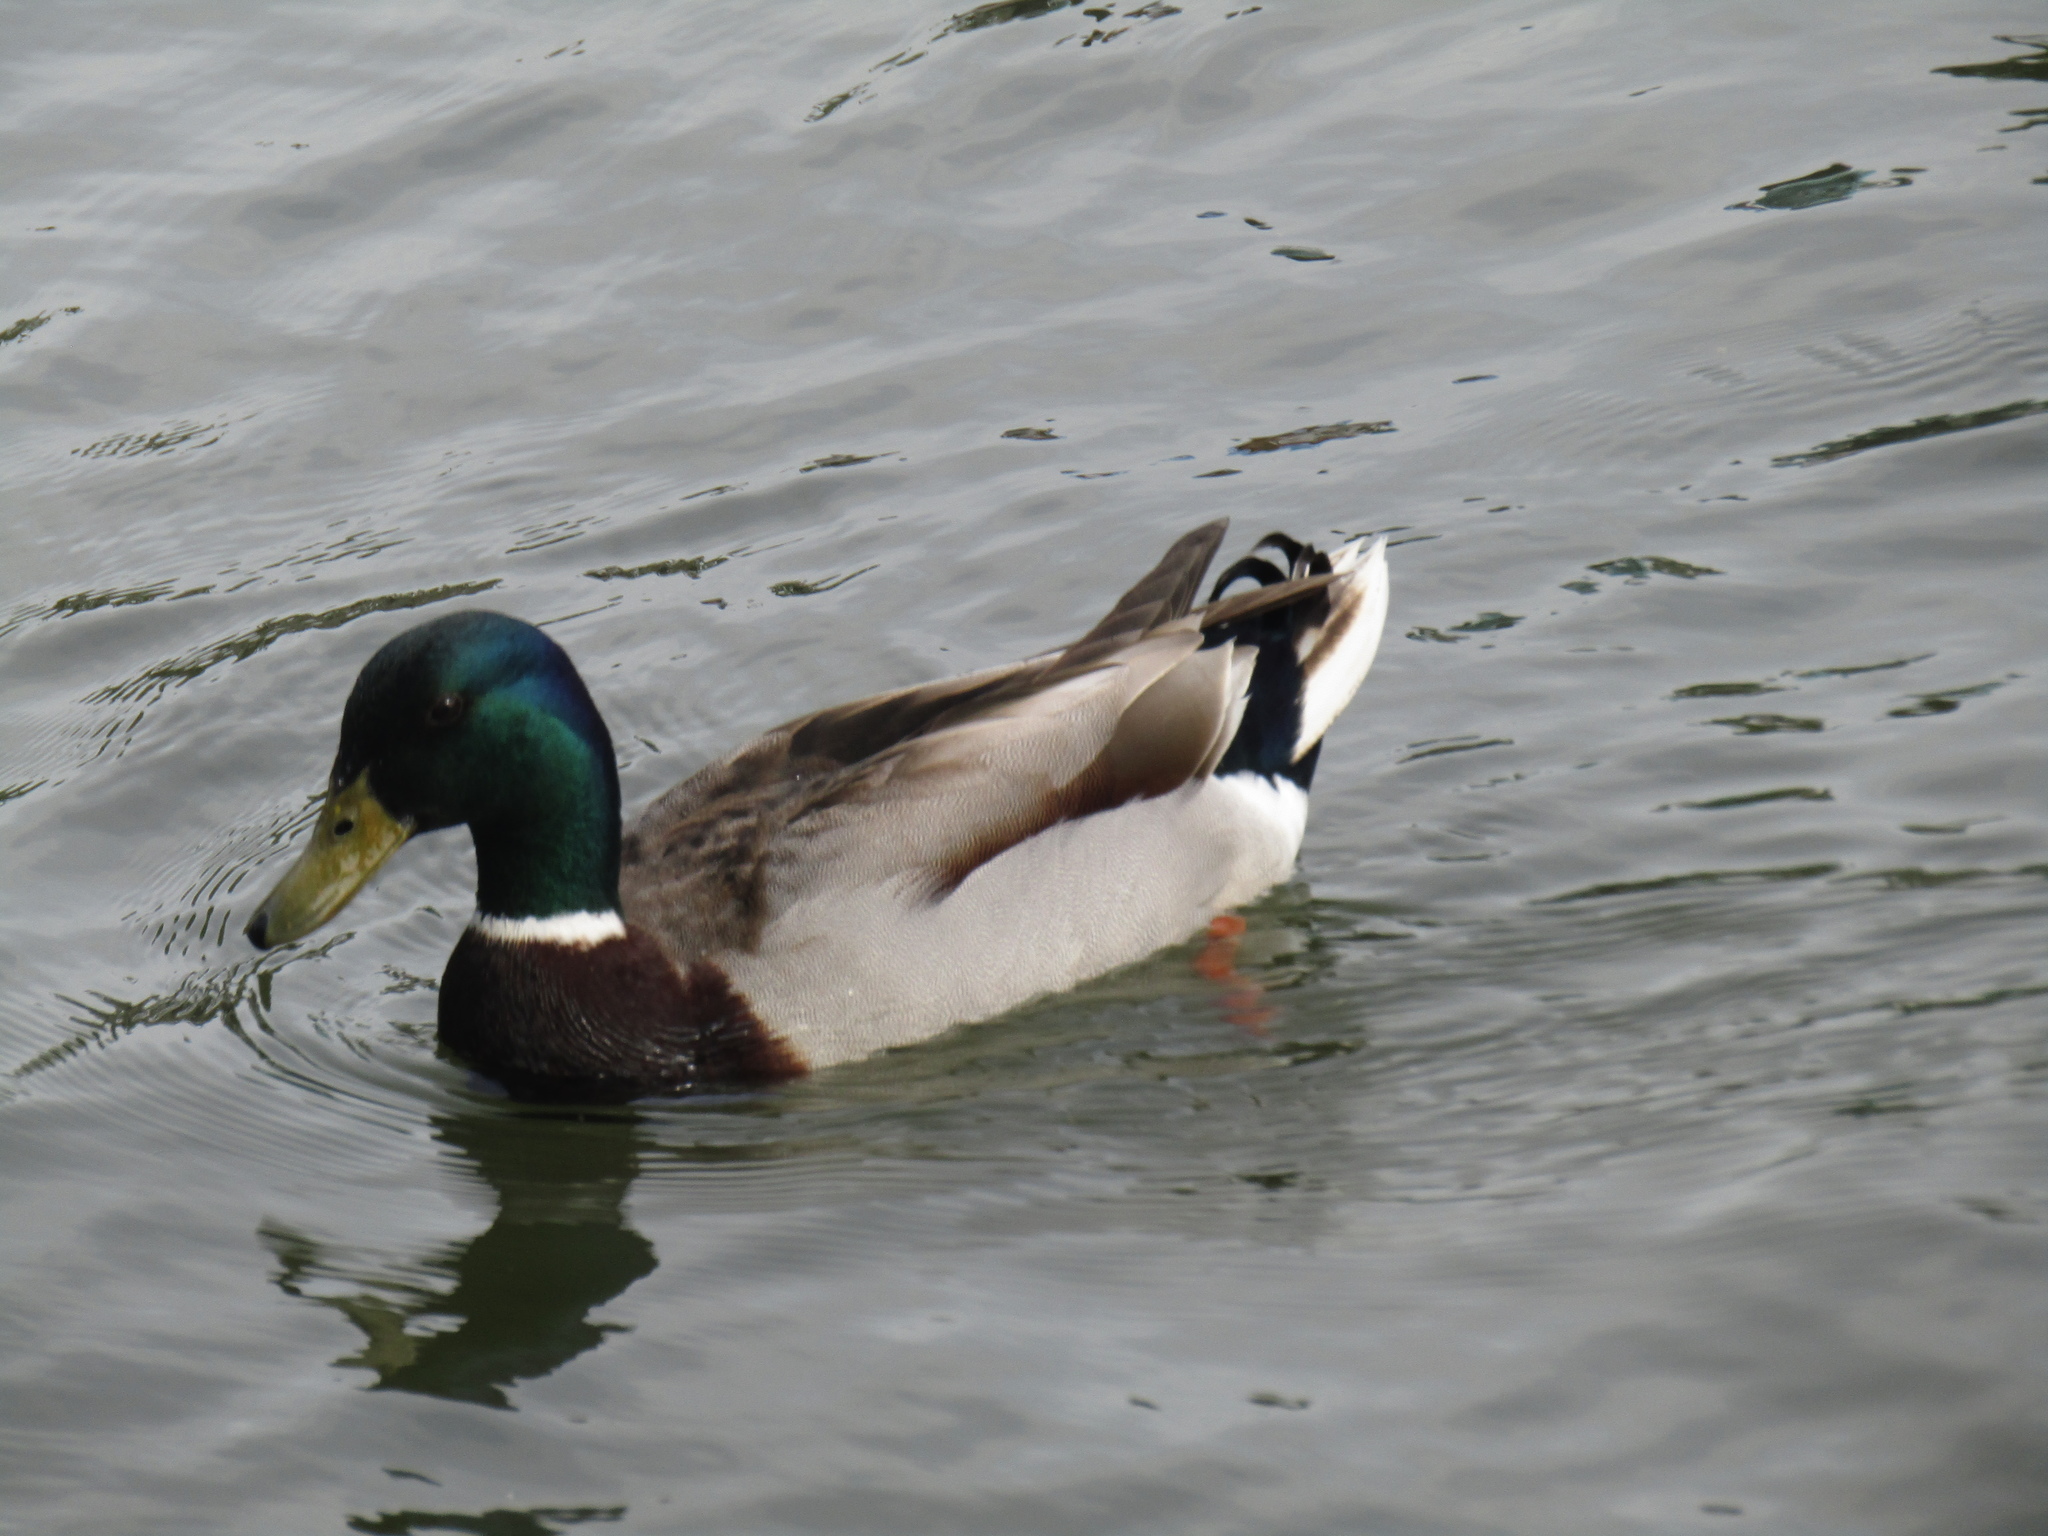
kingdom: Animalia
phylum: Chordata
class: Aves
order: Anseriformes
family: Anatidae
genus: Anas
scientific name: Anas platyrhynchos
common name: Mallard
